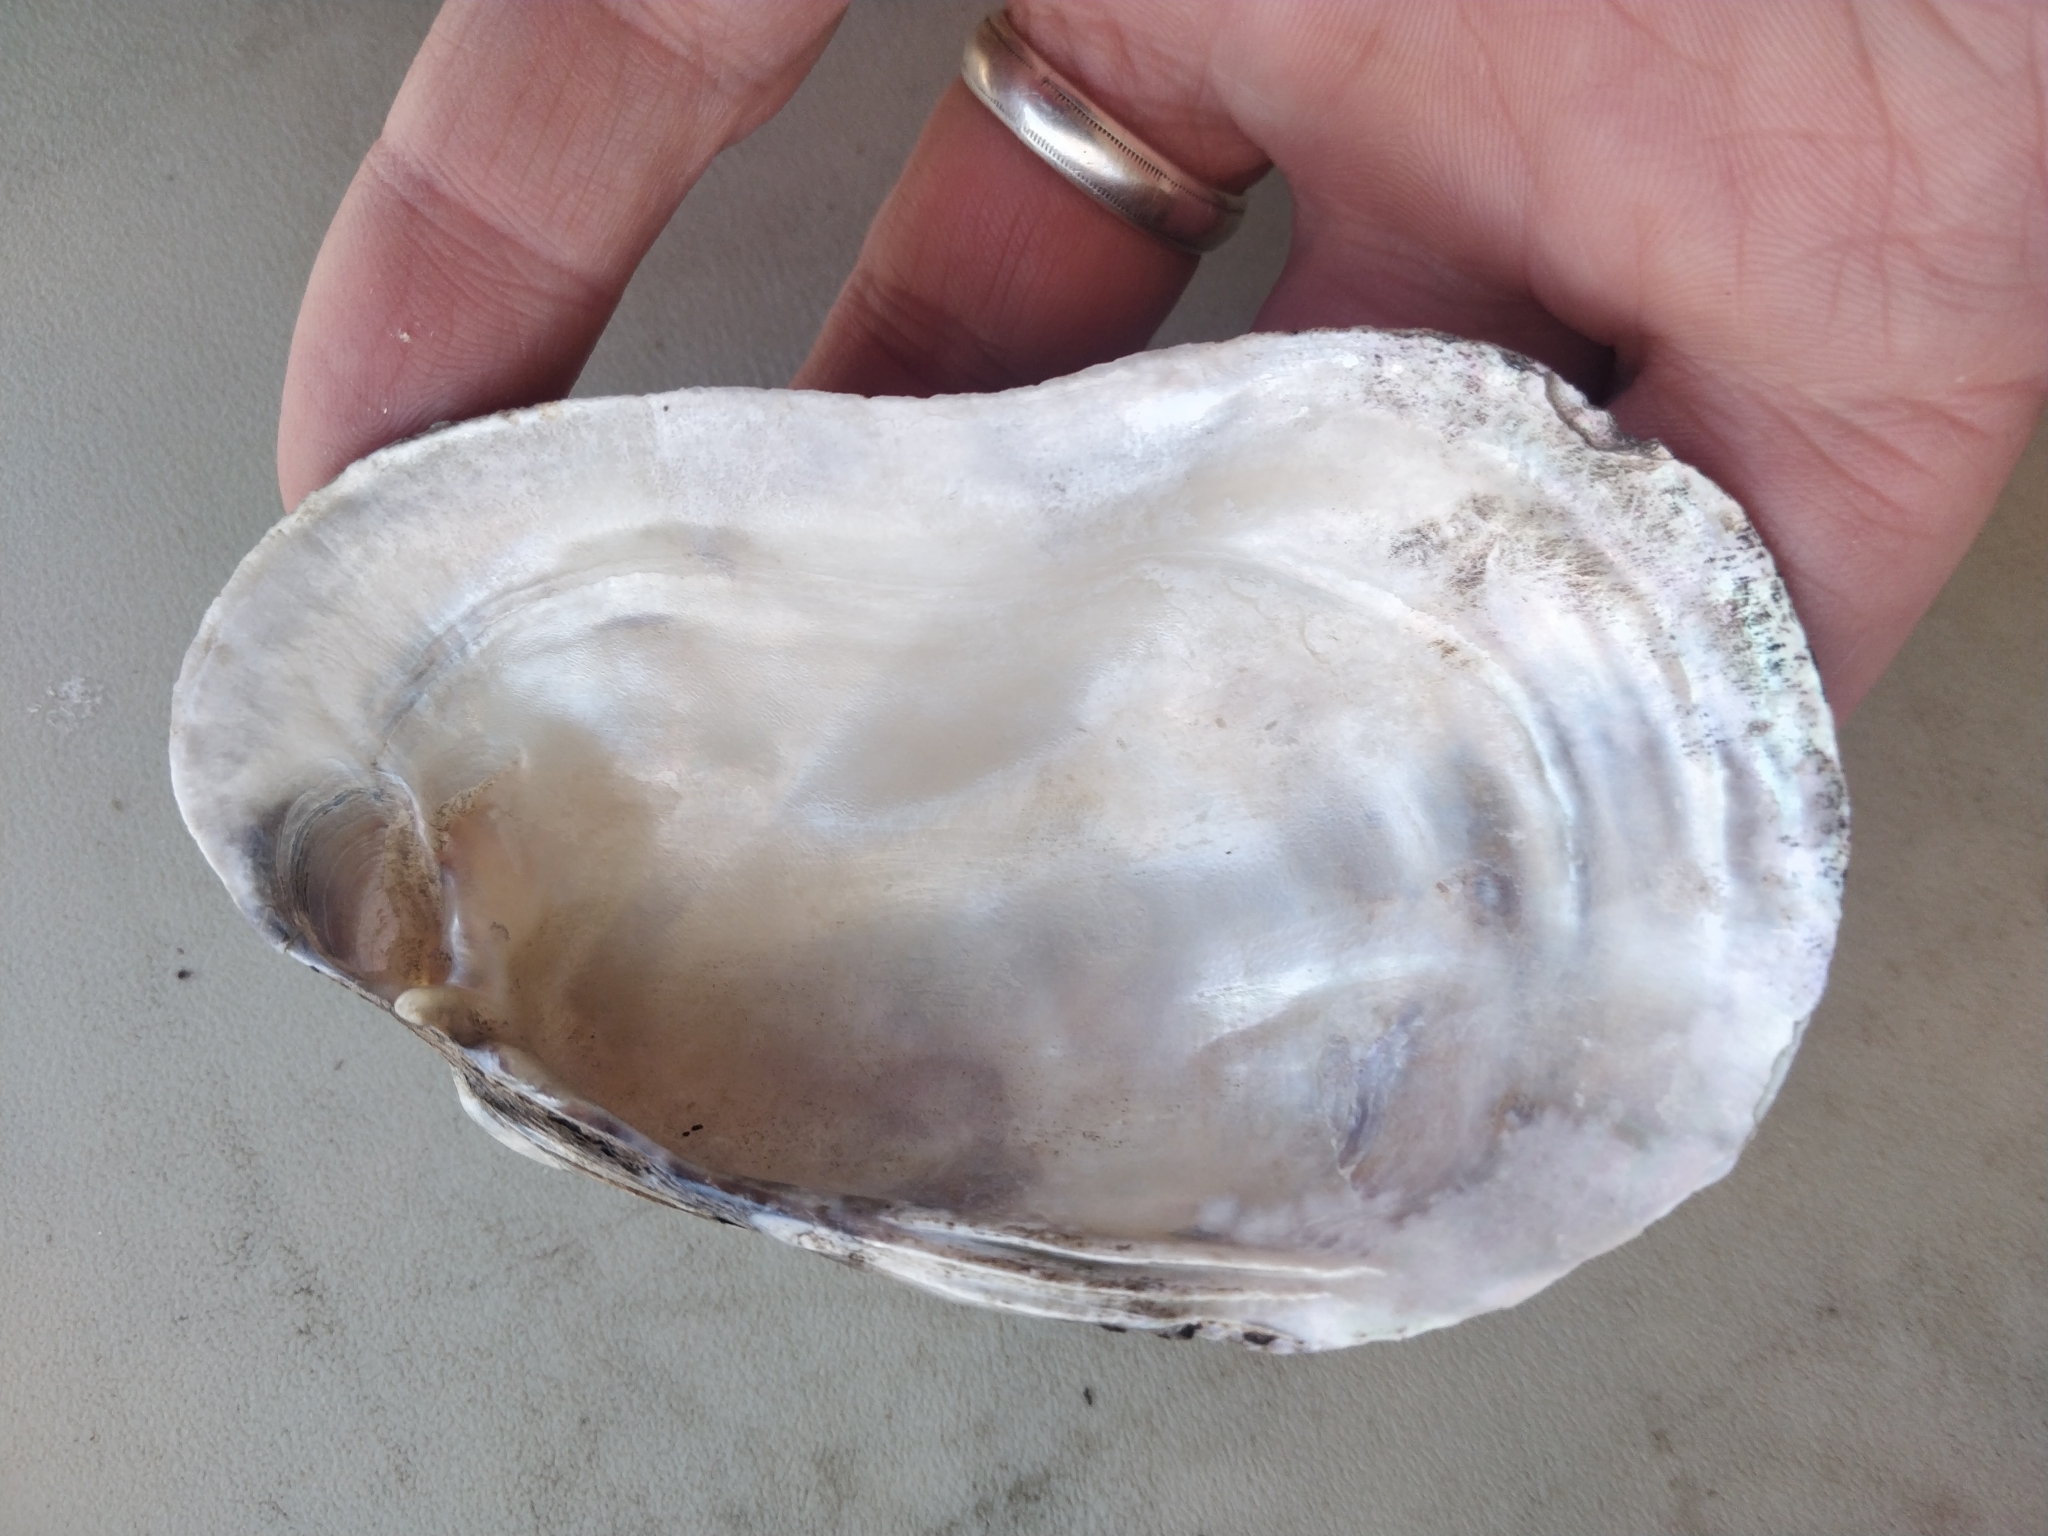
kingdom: Animalia
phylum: Mollusca
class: Bivalvia
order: Unionida
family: Unionidae
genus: Lampsilis
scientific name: Lampsilis siliquoidea
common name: Fatmucket
